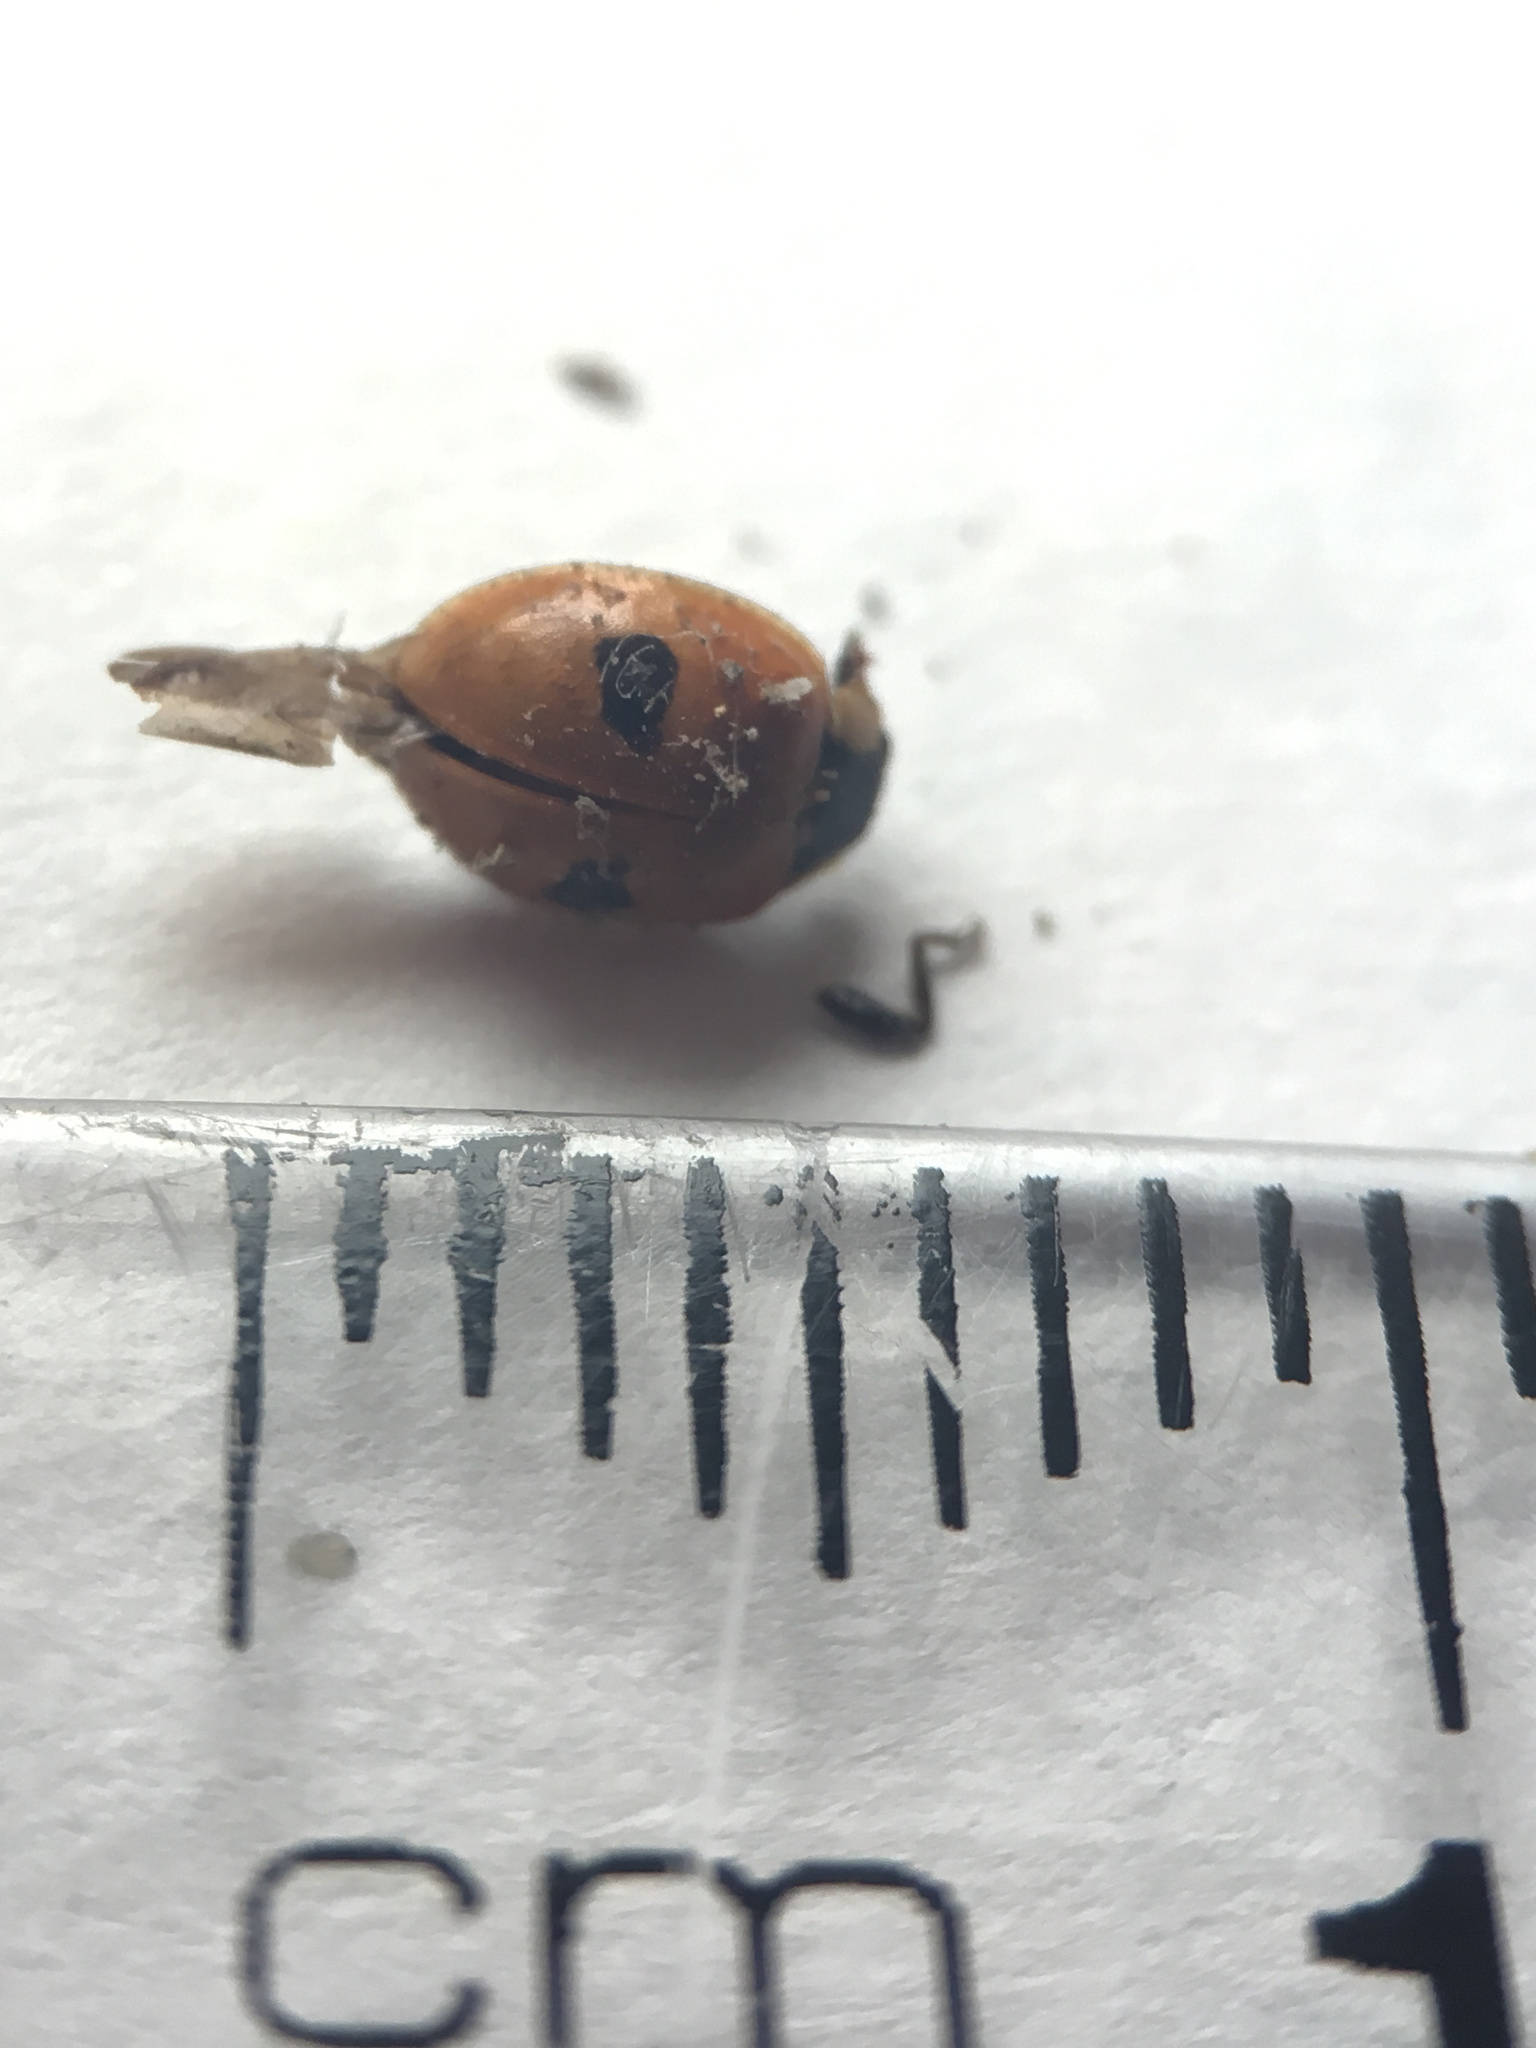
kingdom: Animalia
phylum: Arthropoda
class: Insecta
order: Coleoptera
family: Coccinellidae
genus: Adalia
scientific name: Adalia bipunctata
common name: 2-spot ladybird
